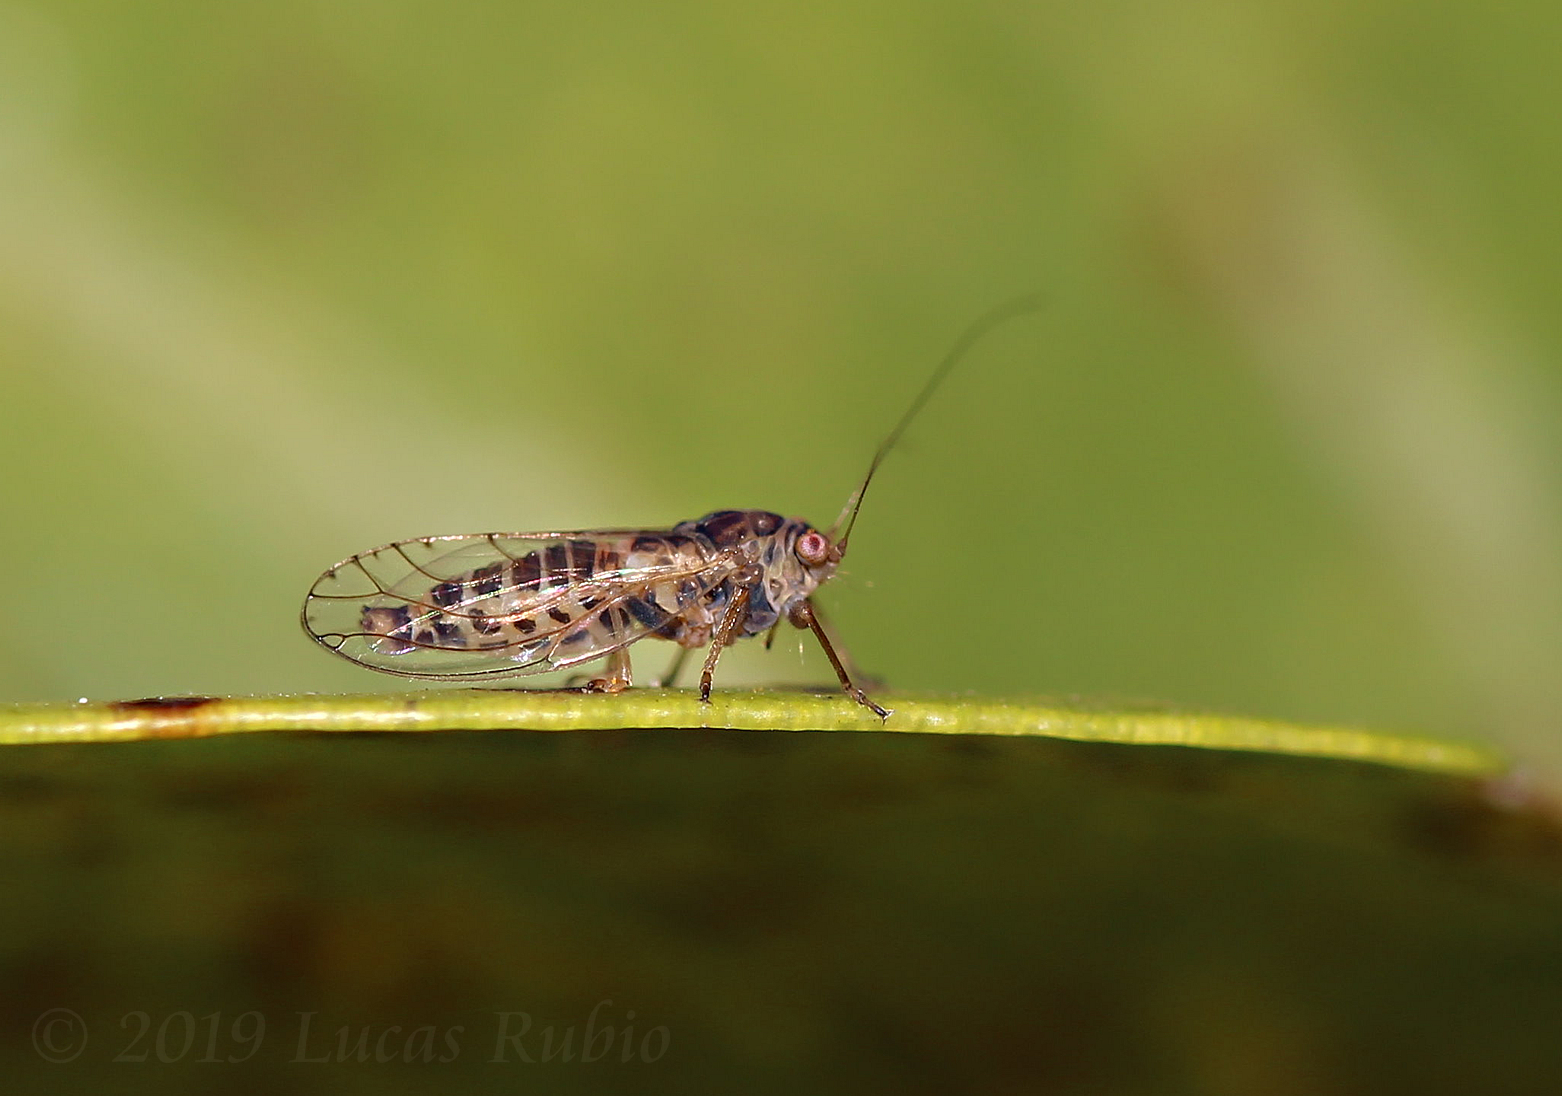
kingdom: Animalia
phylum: Arthropoda
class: Insecta
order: Hemiptera
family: Psyllidae
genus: Platycorypha
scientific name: Platycorypha nigrivirga
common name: Tipu psyllid
